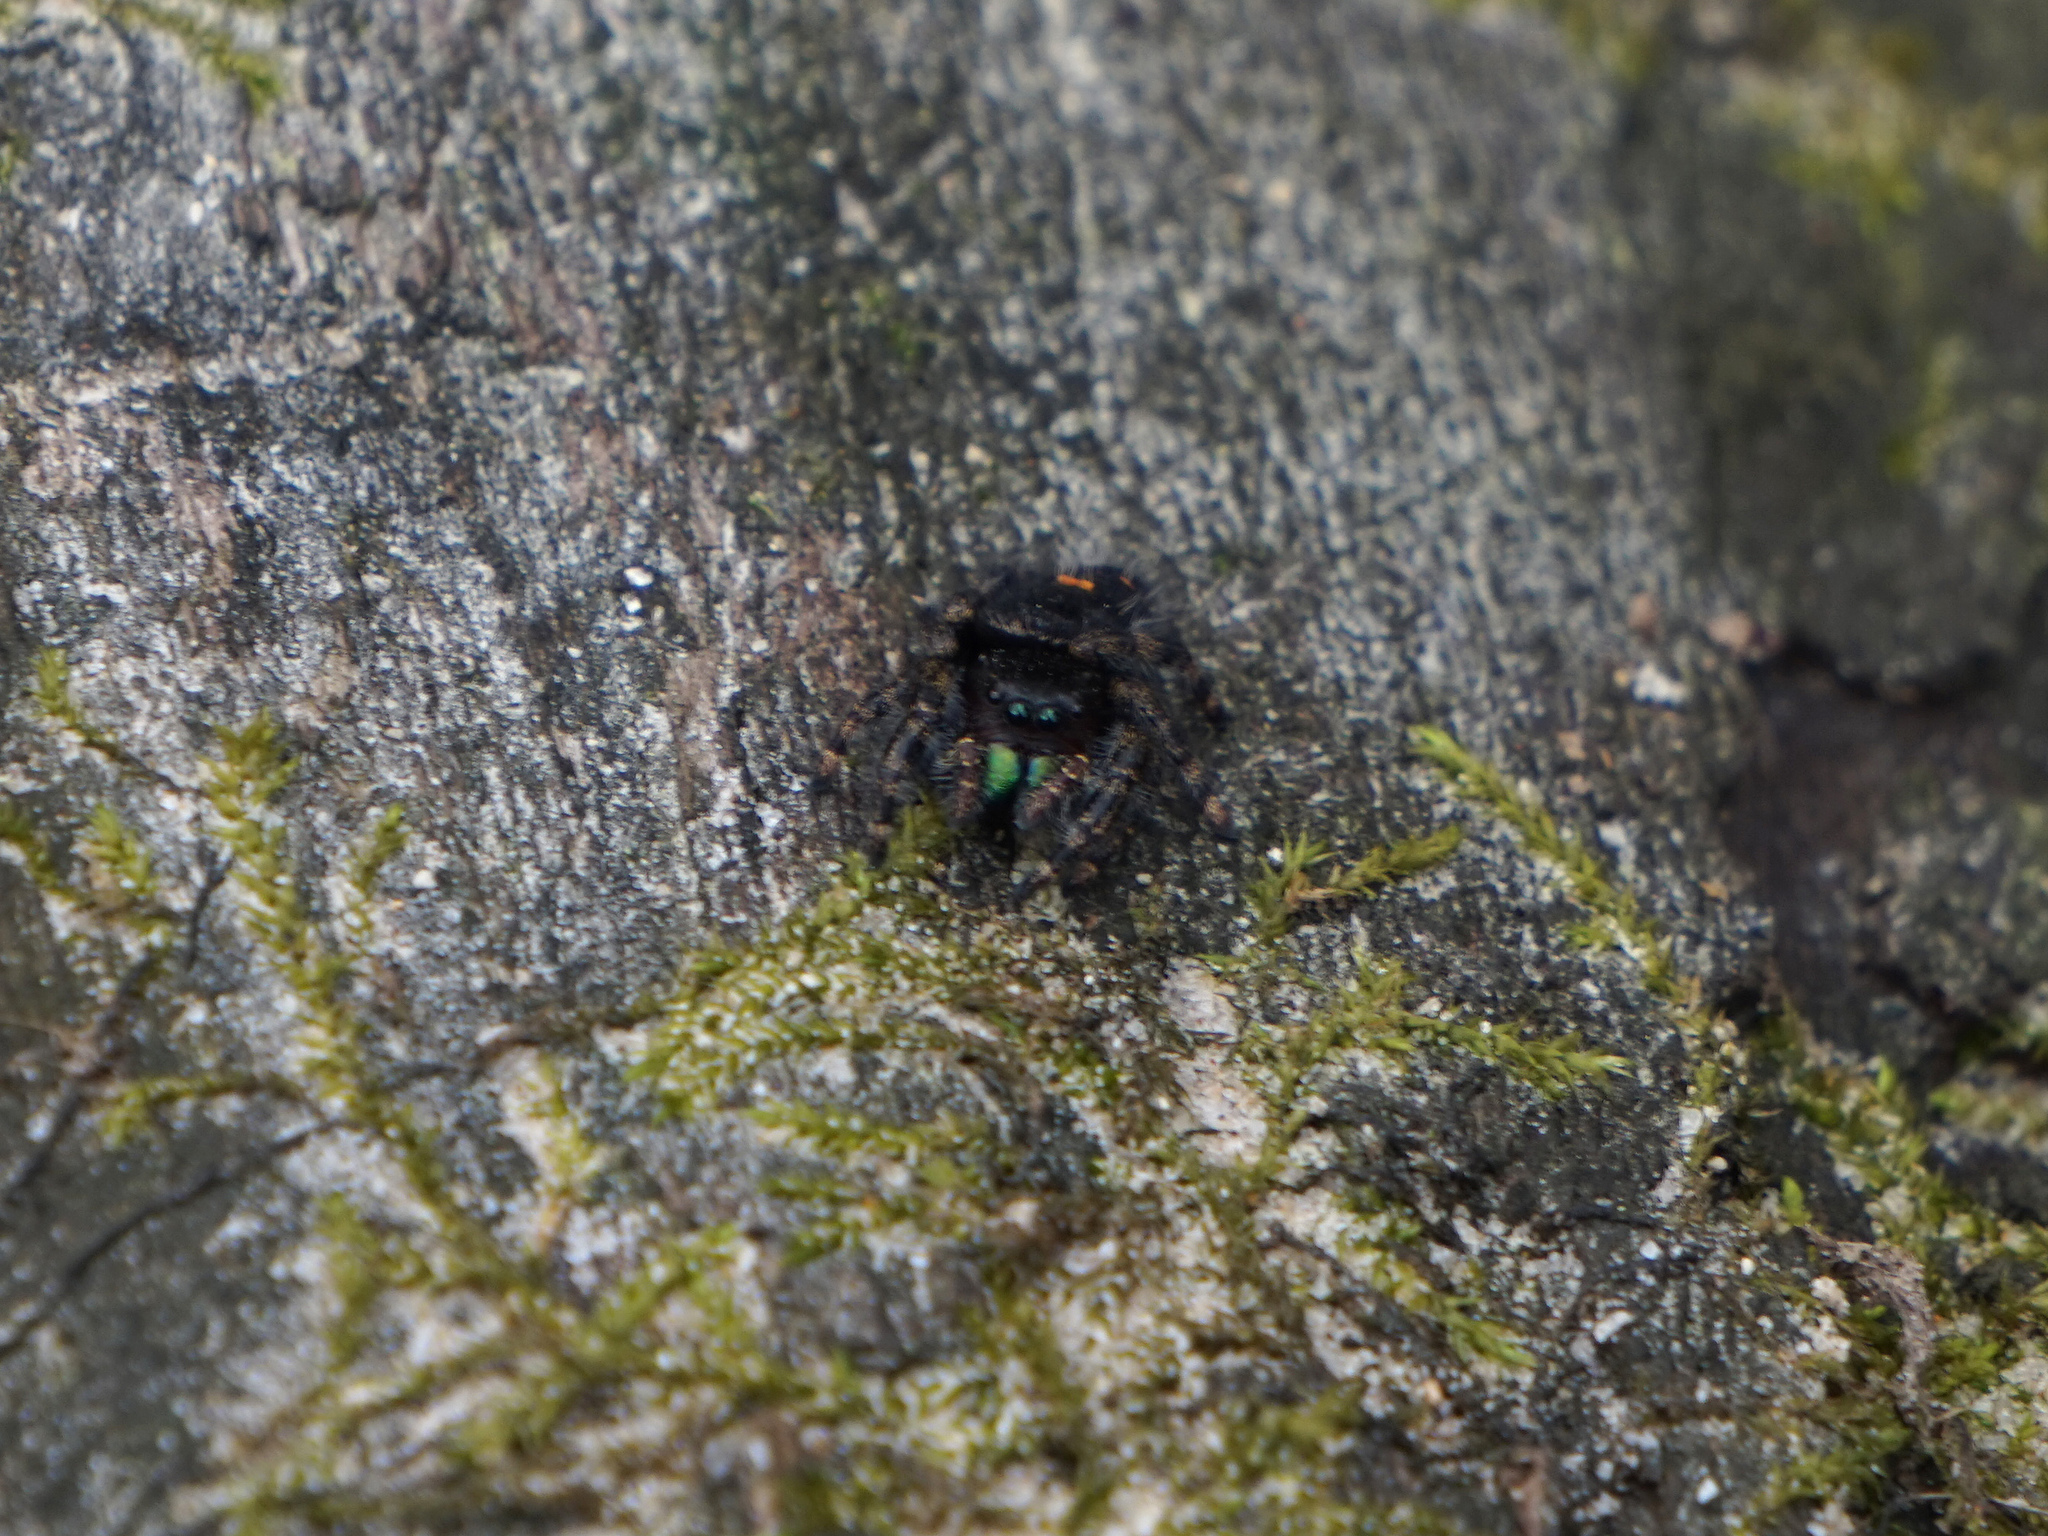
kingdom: Animalia
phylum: Arthropoda
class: Arachnida
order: Araneae
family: Salticidae
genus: Phidippus
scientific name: Phidippus audax
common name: Bold jumper
